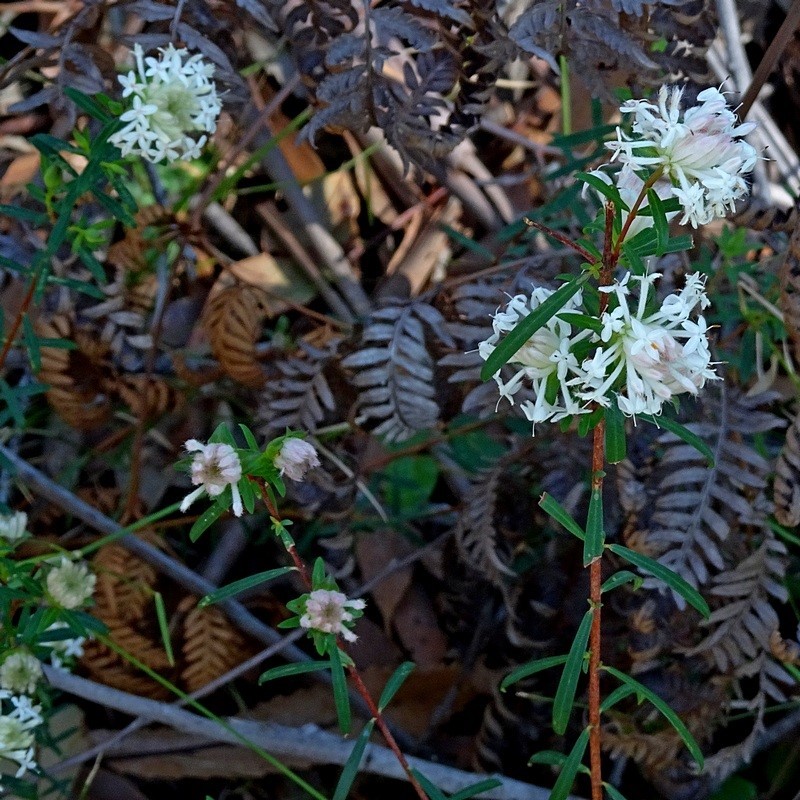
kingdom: Plantae
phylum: Tracheophyta
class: Magnoliopsida
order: Malvales
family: Thymelaeaceae
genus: Pimelea
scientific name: Pimelea linifolia
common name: Queen-of-the-bush
